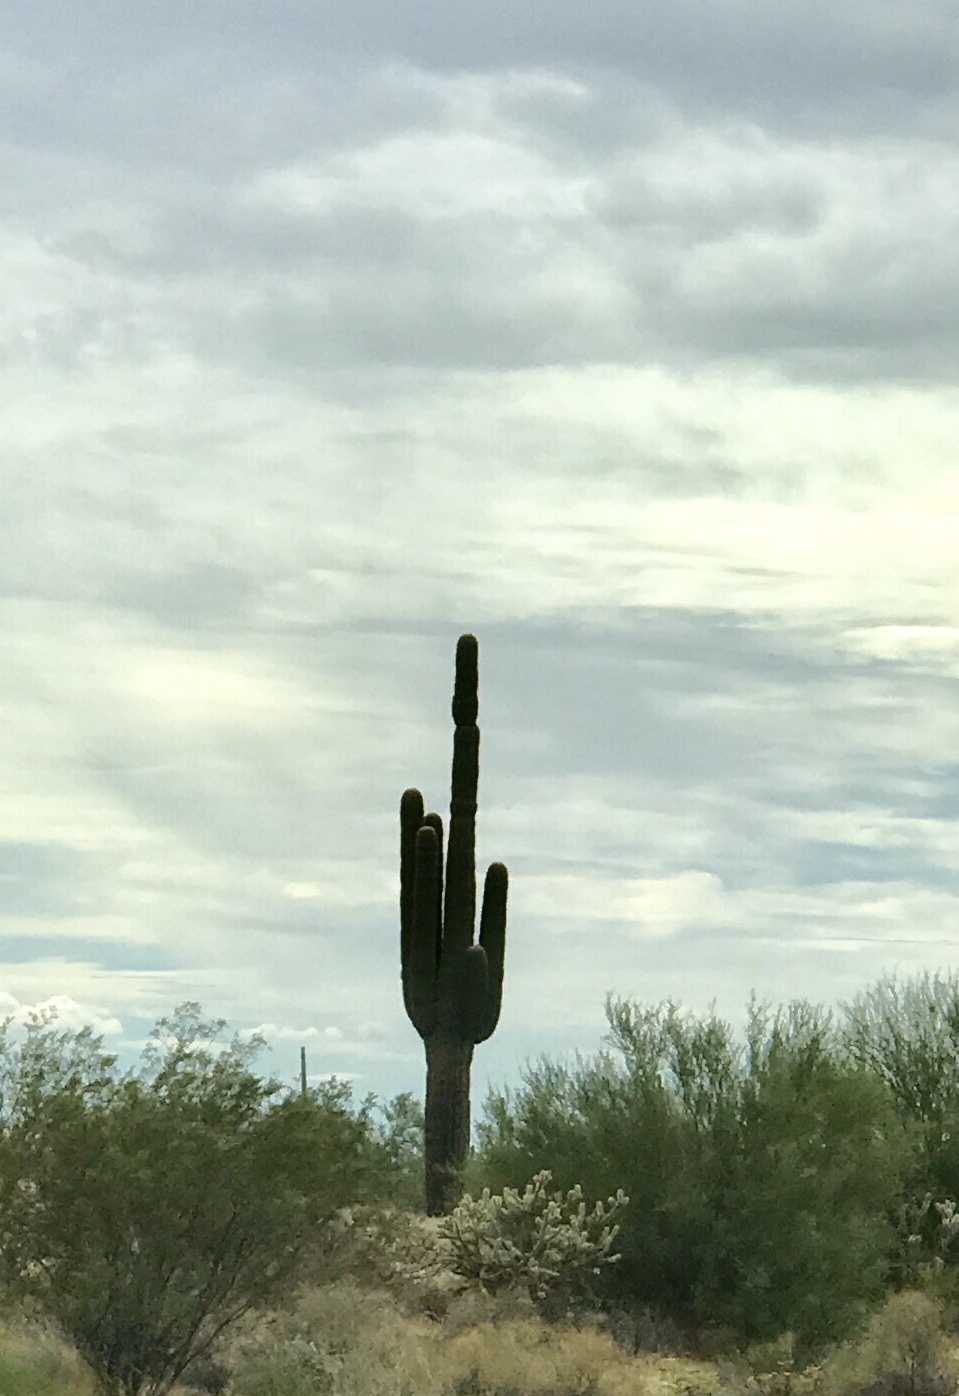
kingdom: Plantae
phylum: Tracheophyta
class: Magnoliopsida
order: Caryophyllales
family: Cactaceae
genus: Carnegiea
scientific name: Carnegiea gigantea
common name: Saguaro
